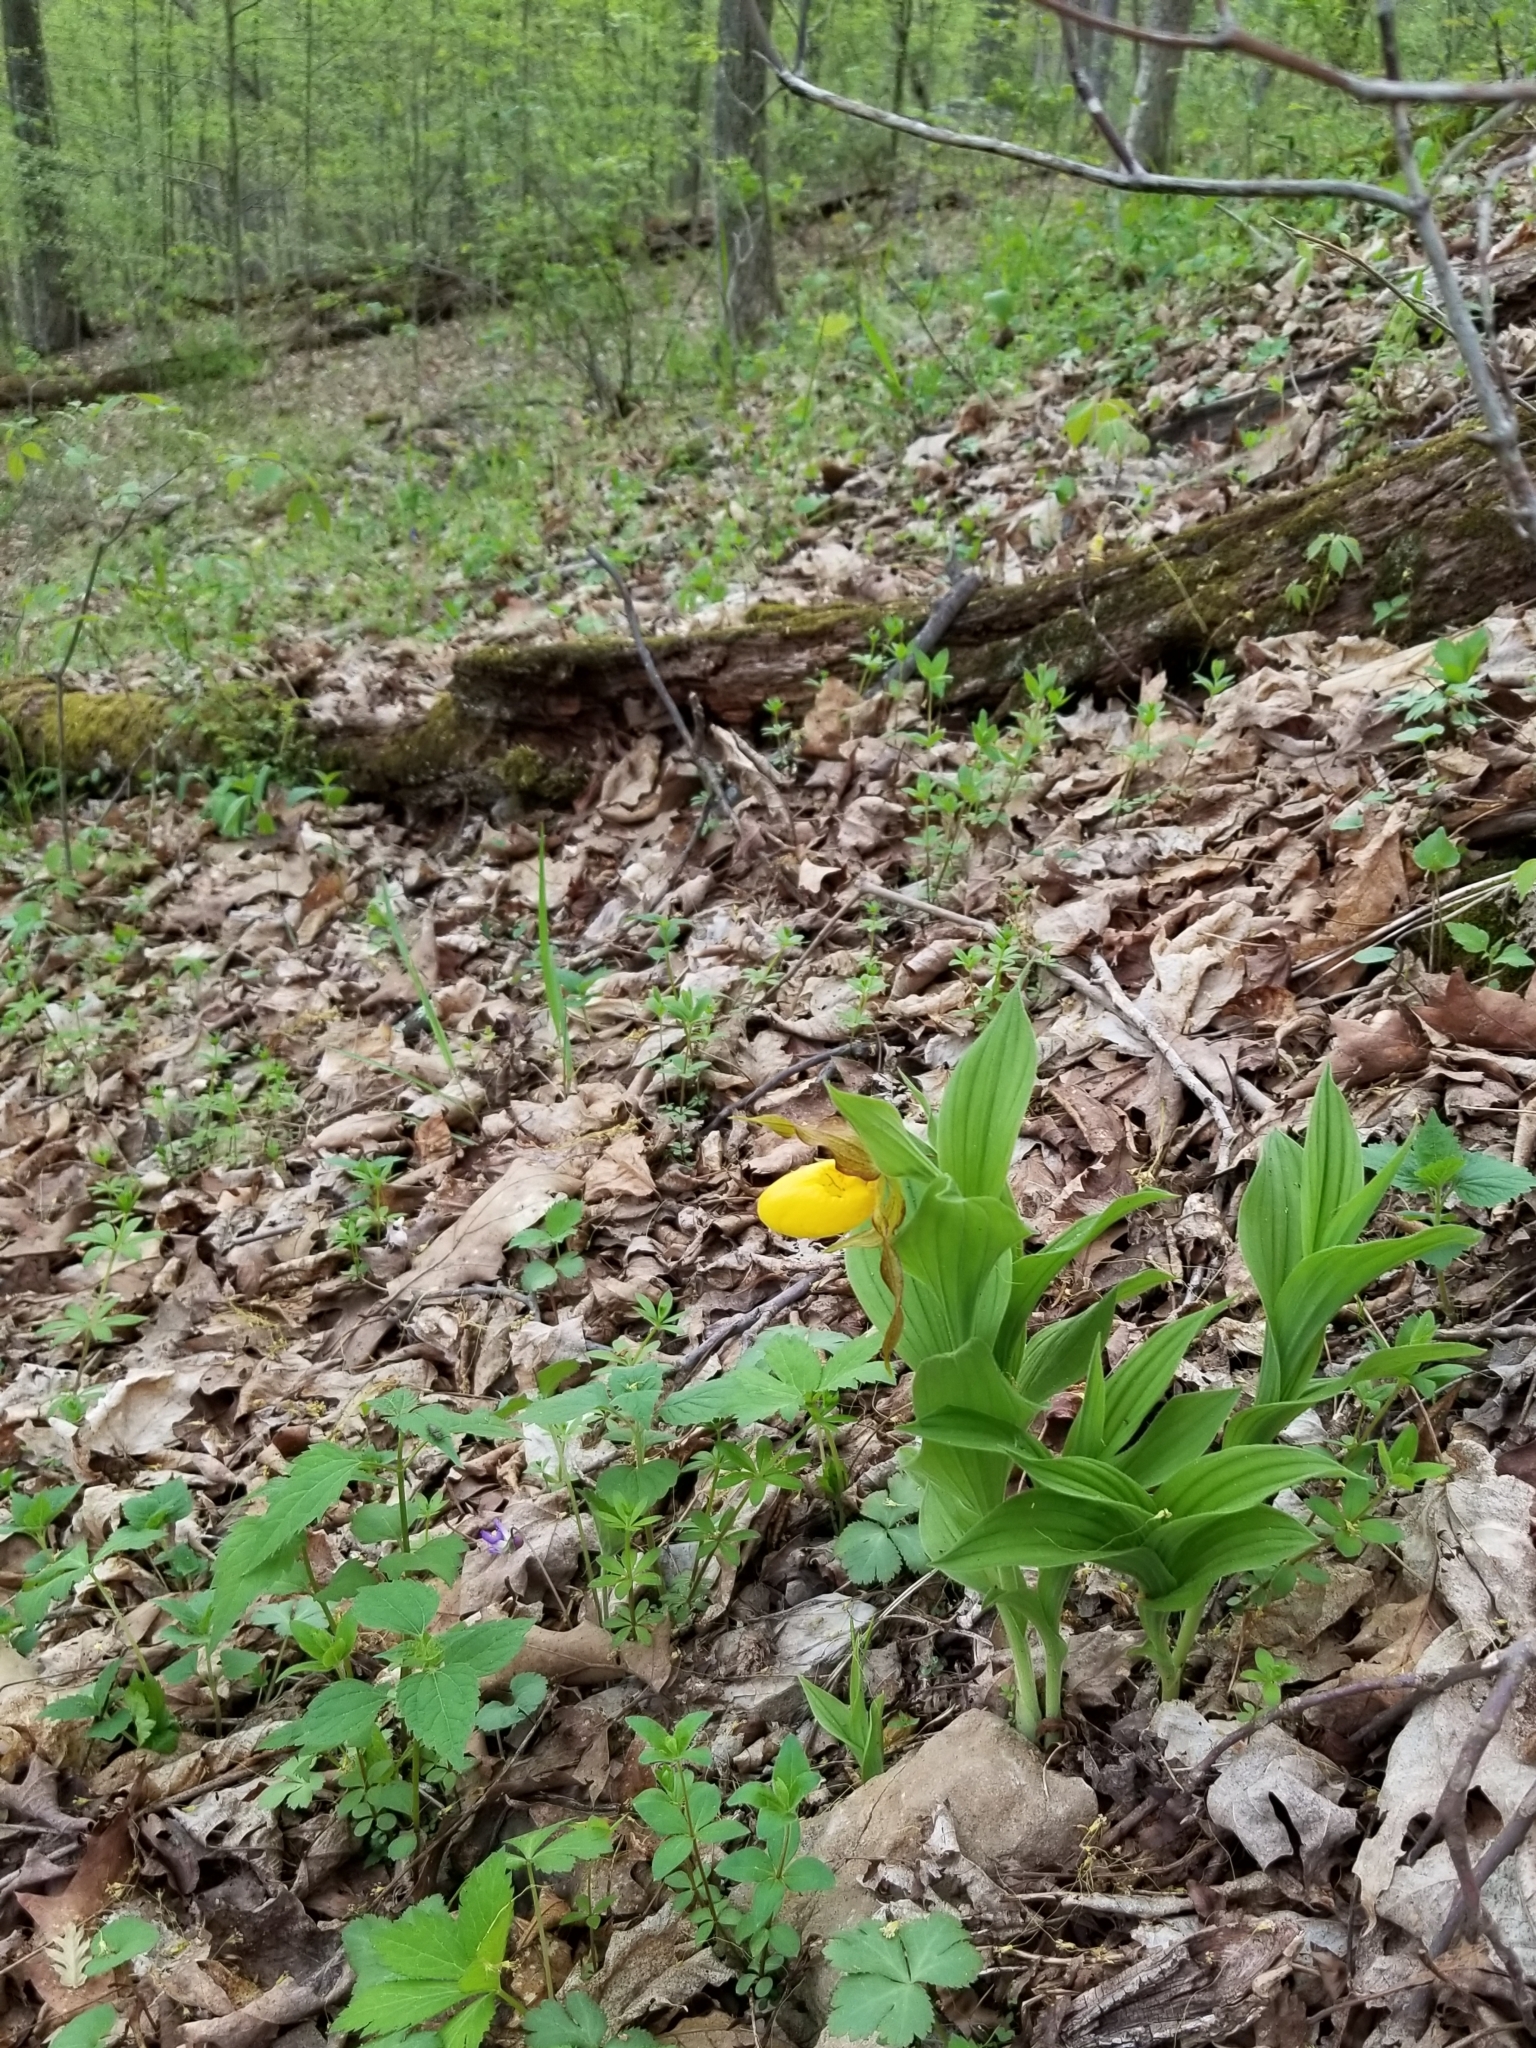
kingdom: Plantae
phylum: Tracheophyta
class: Liliopsida
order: Asparagales
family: Orchidaceae
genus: Cypripedium
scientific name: Cypripedium parviflorum
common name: American yellow lady's-slipper
